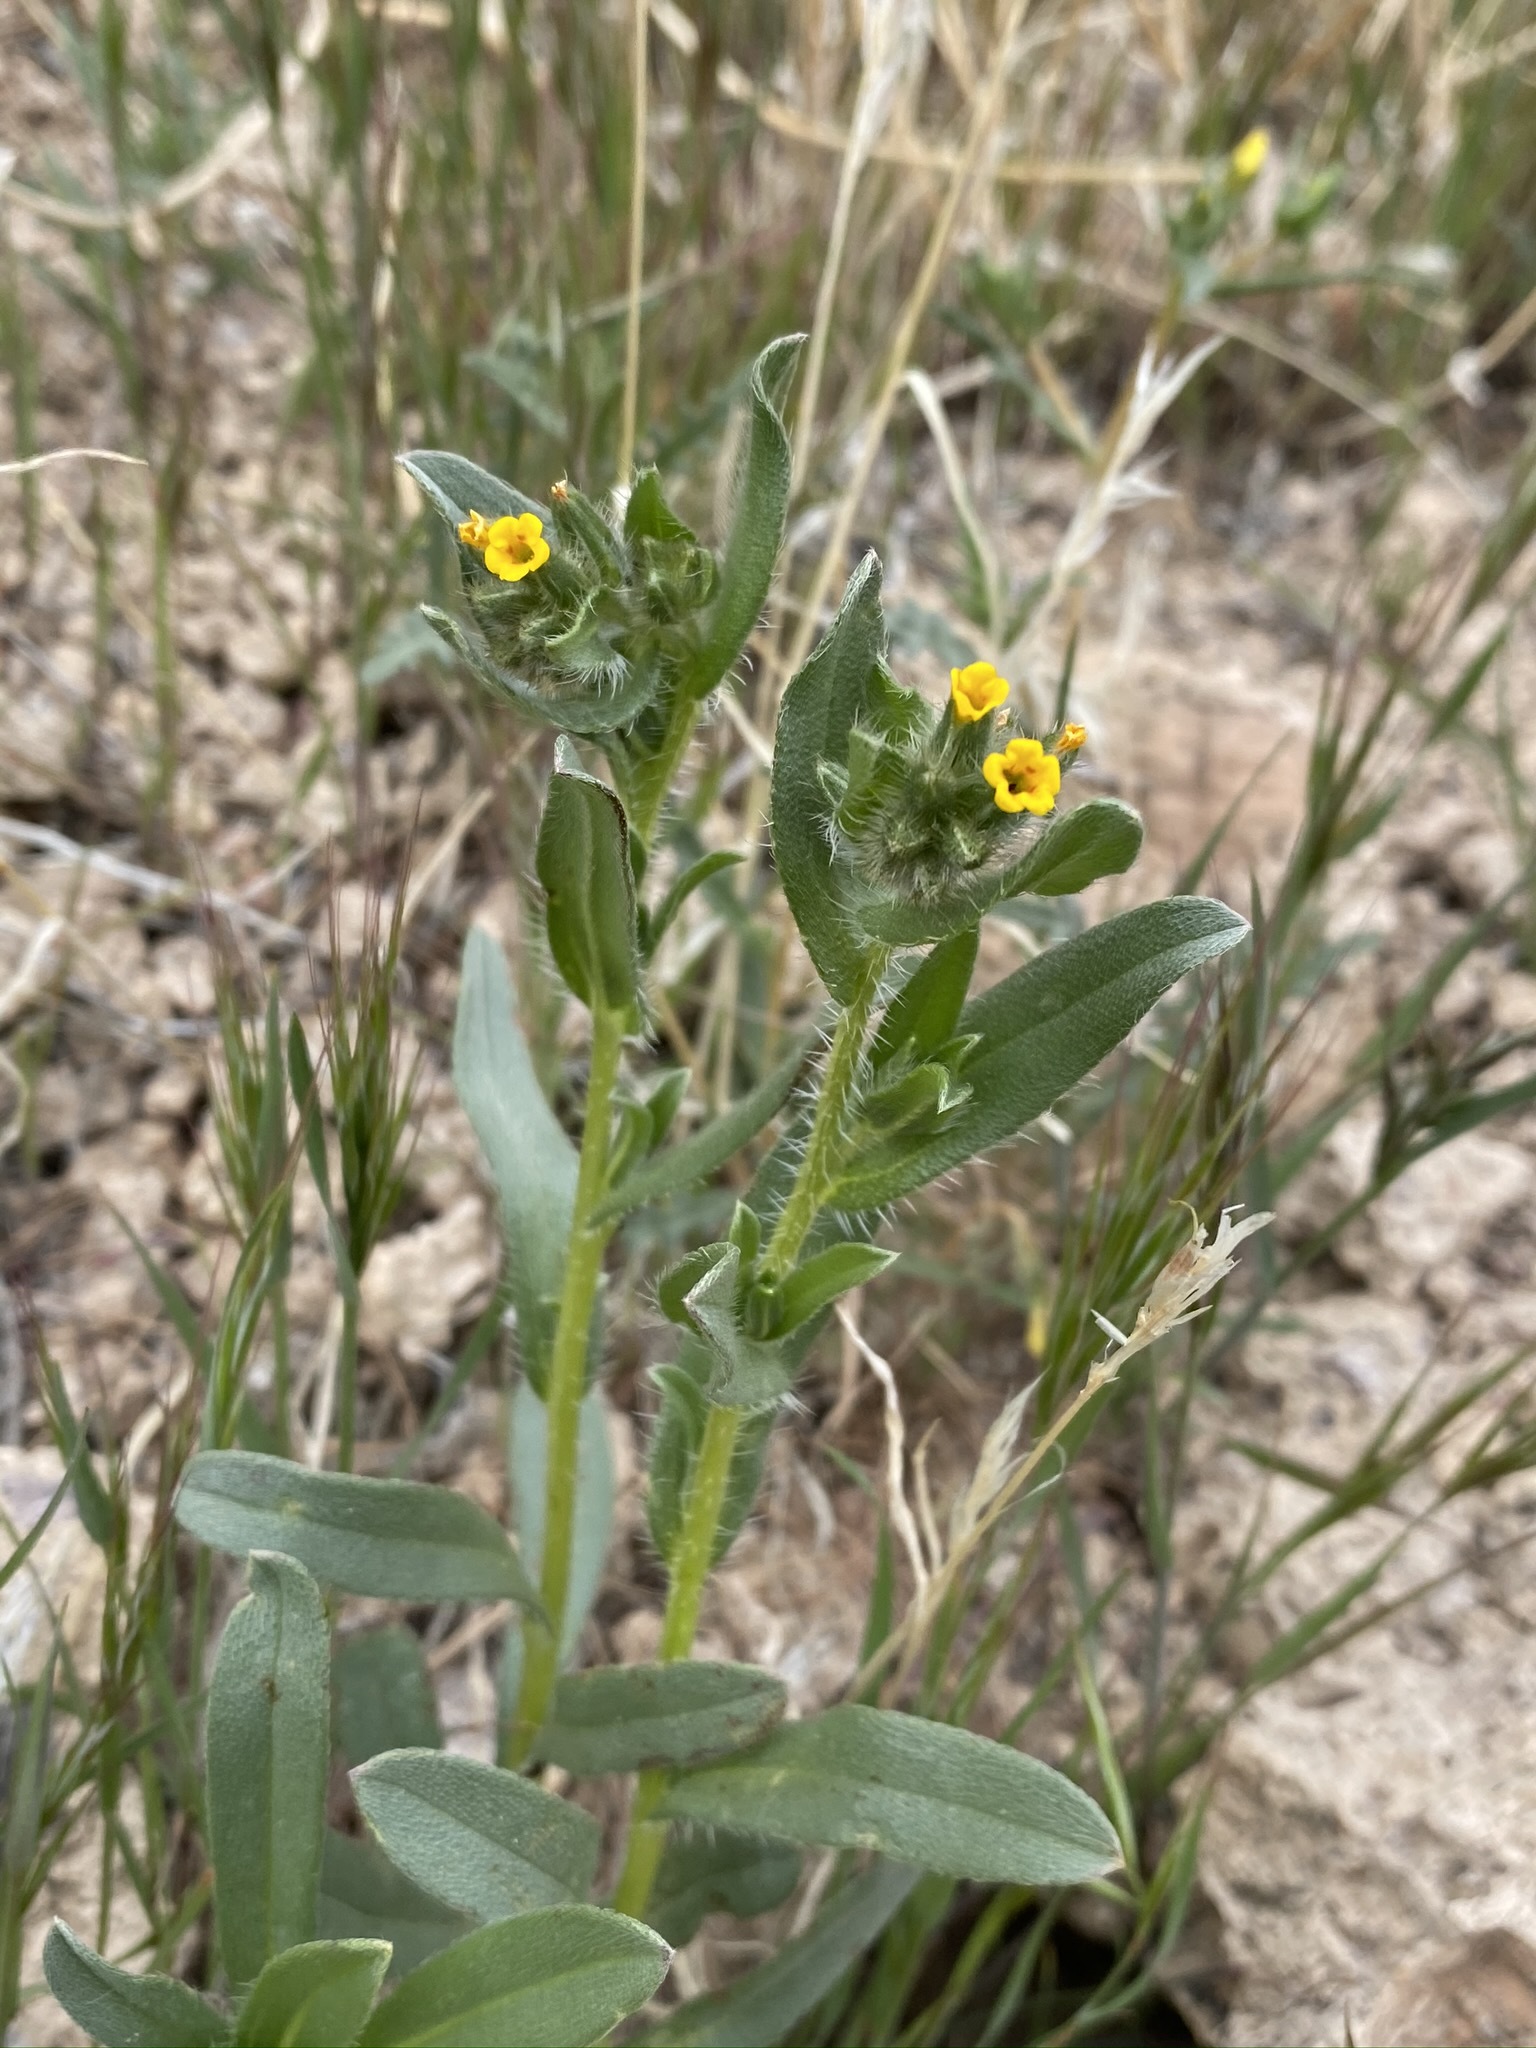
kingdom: Plantae
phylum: Tracheophyta
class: Magnoliopsida
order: Boraginales
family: Boraginaceae
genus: Amsinckia
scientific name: Amsinckia tessellata
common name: Tessellate fiddleneck
